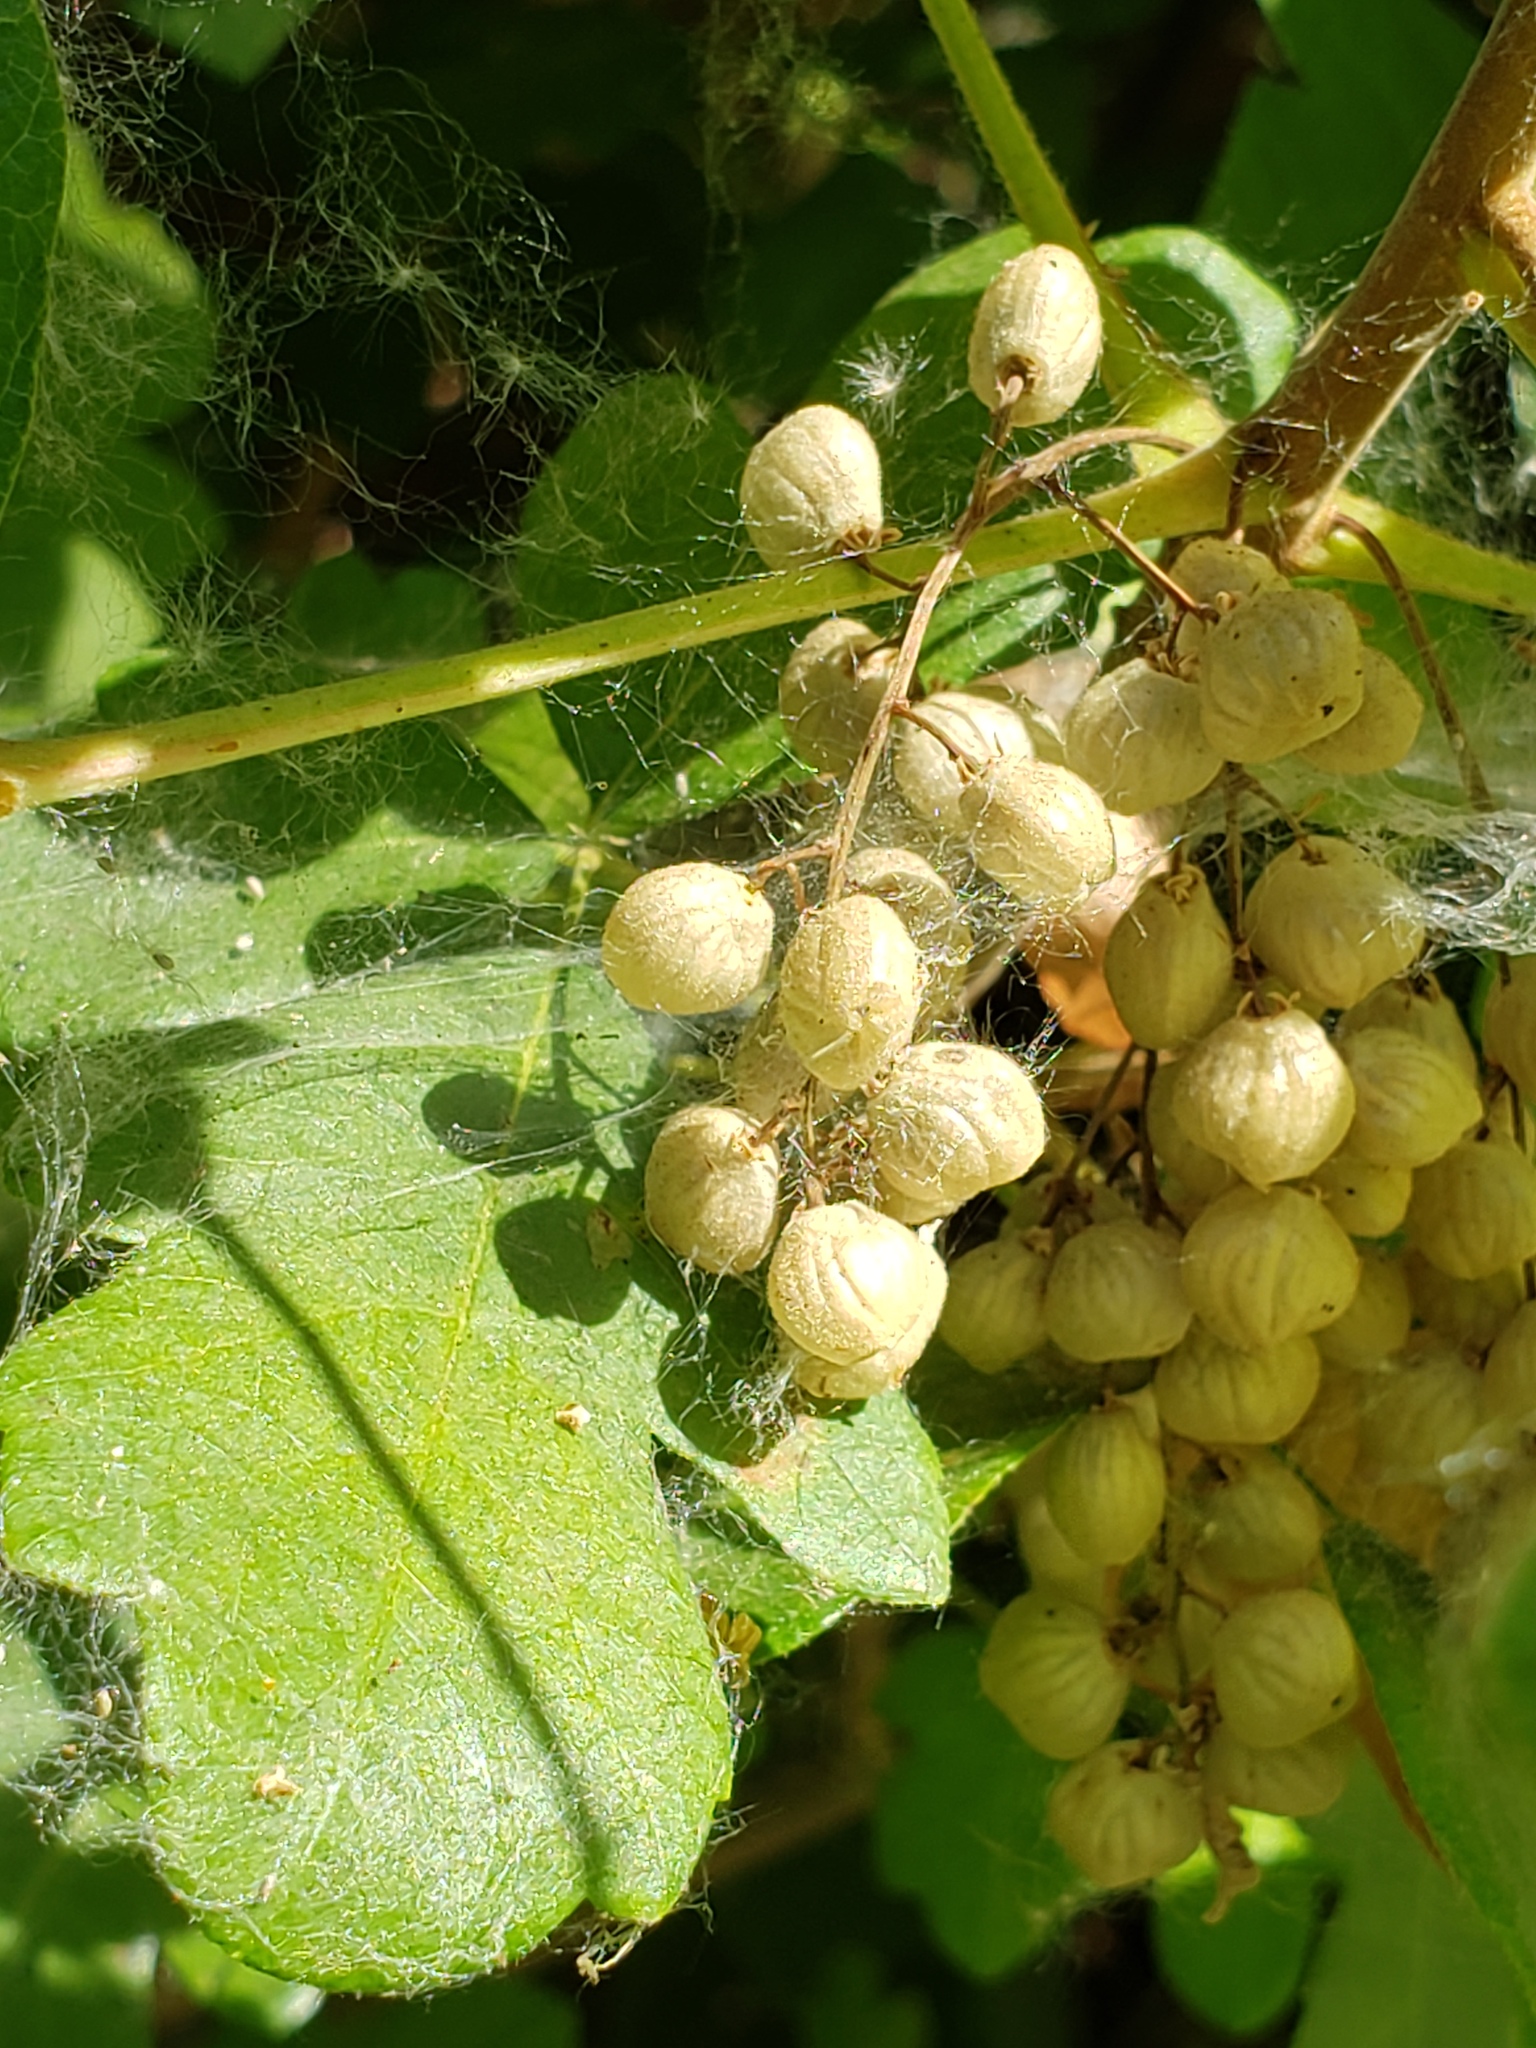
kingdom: Plantae
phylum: Tracheophyta
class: Magnoliopsida
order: Sapindales
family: Anacardiaceae
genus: Toxicodendron
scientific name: Toxicodendron diversilobum
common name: Pacific poison-oak
